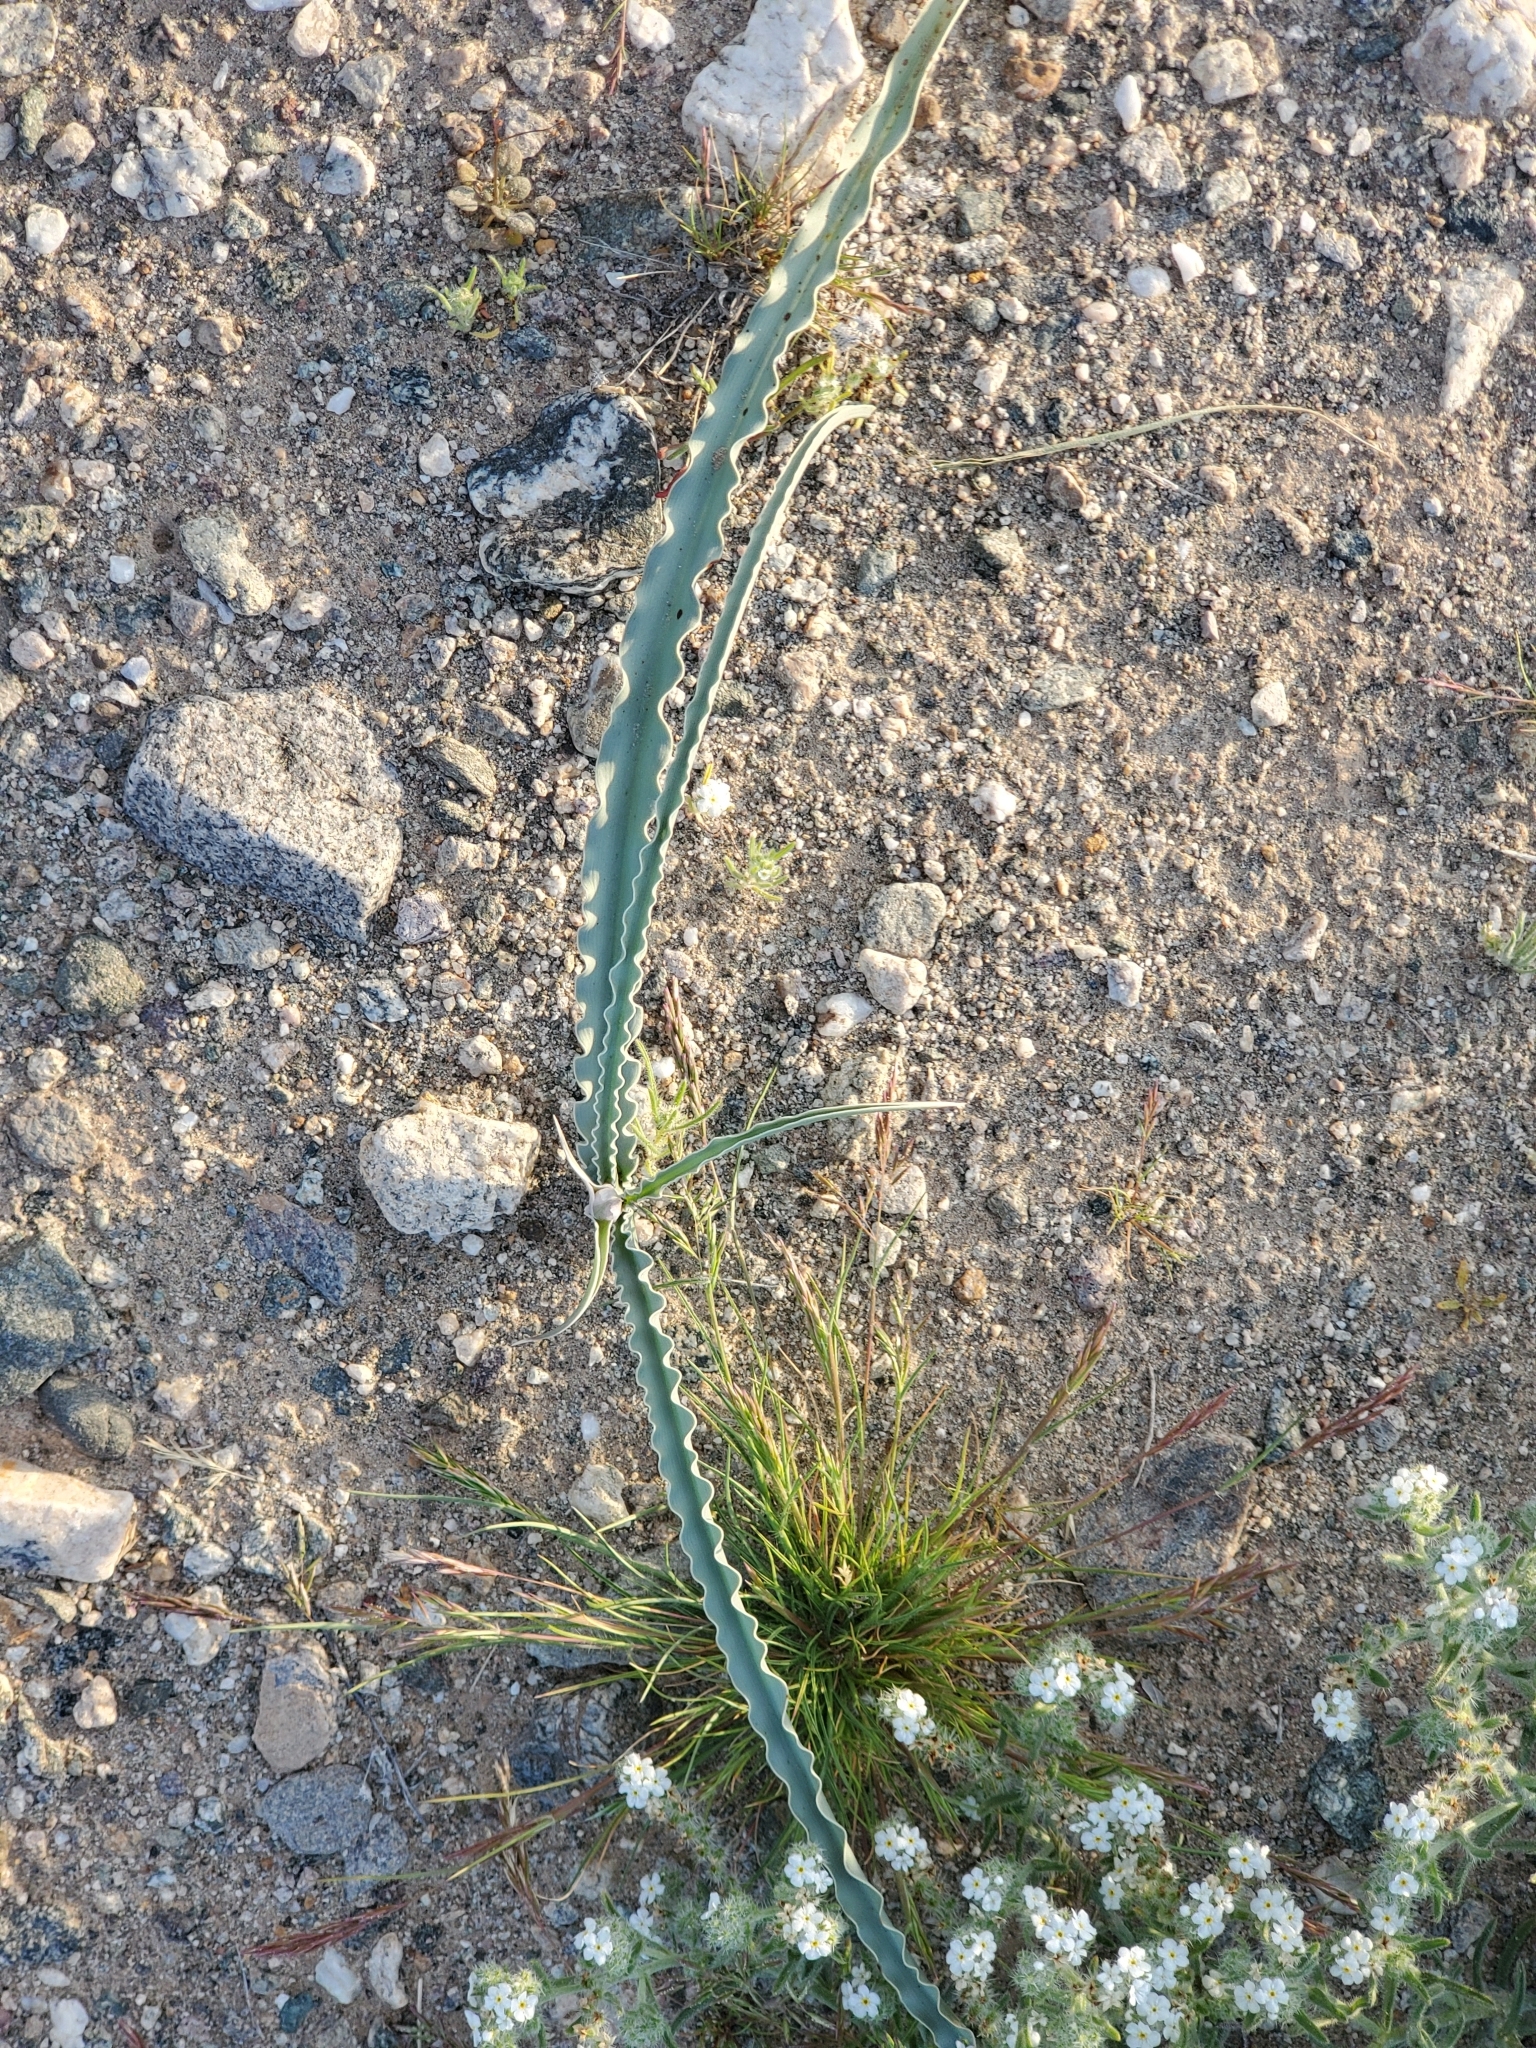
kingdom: Plantae
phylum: Tracheophyta
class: Liliopsida
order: Asparagales
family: Asparagaceae
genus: Hesperocallis
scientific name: Hesperocallis undulata
